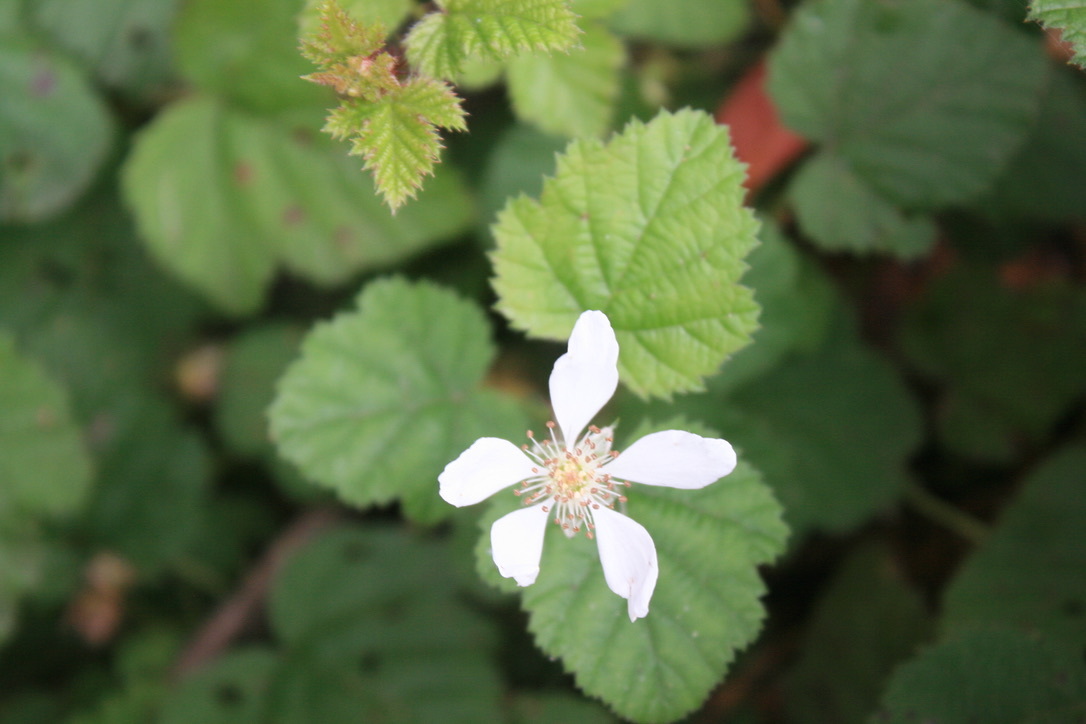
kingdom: Plantae
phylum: Tracheophyta
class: Magnoliopsida
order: Rosales
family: Rosaceae
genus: Rubus
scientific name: Rubus ursinus
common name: Pacific blackberry
